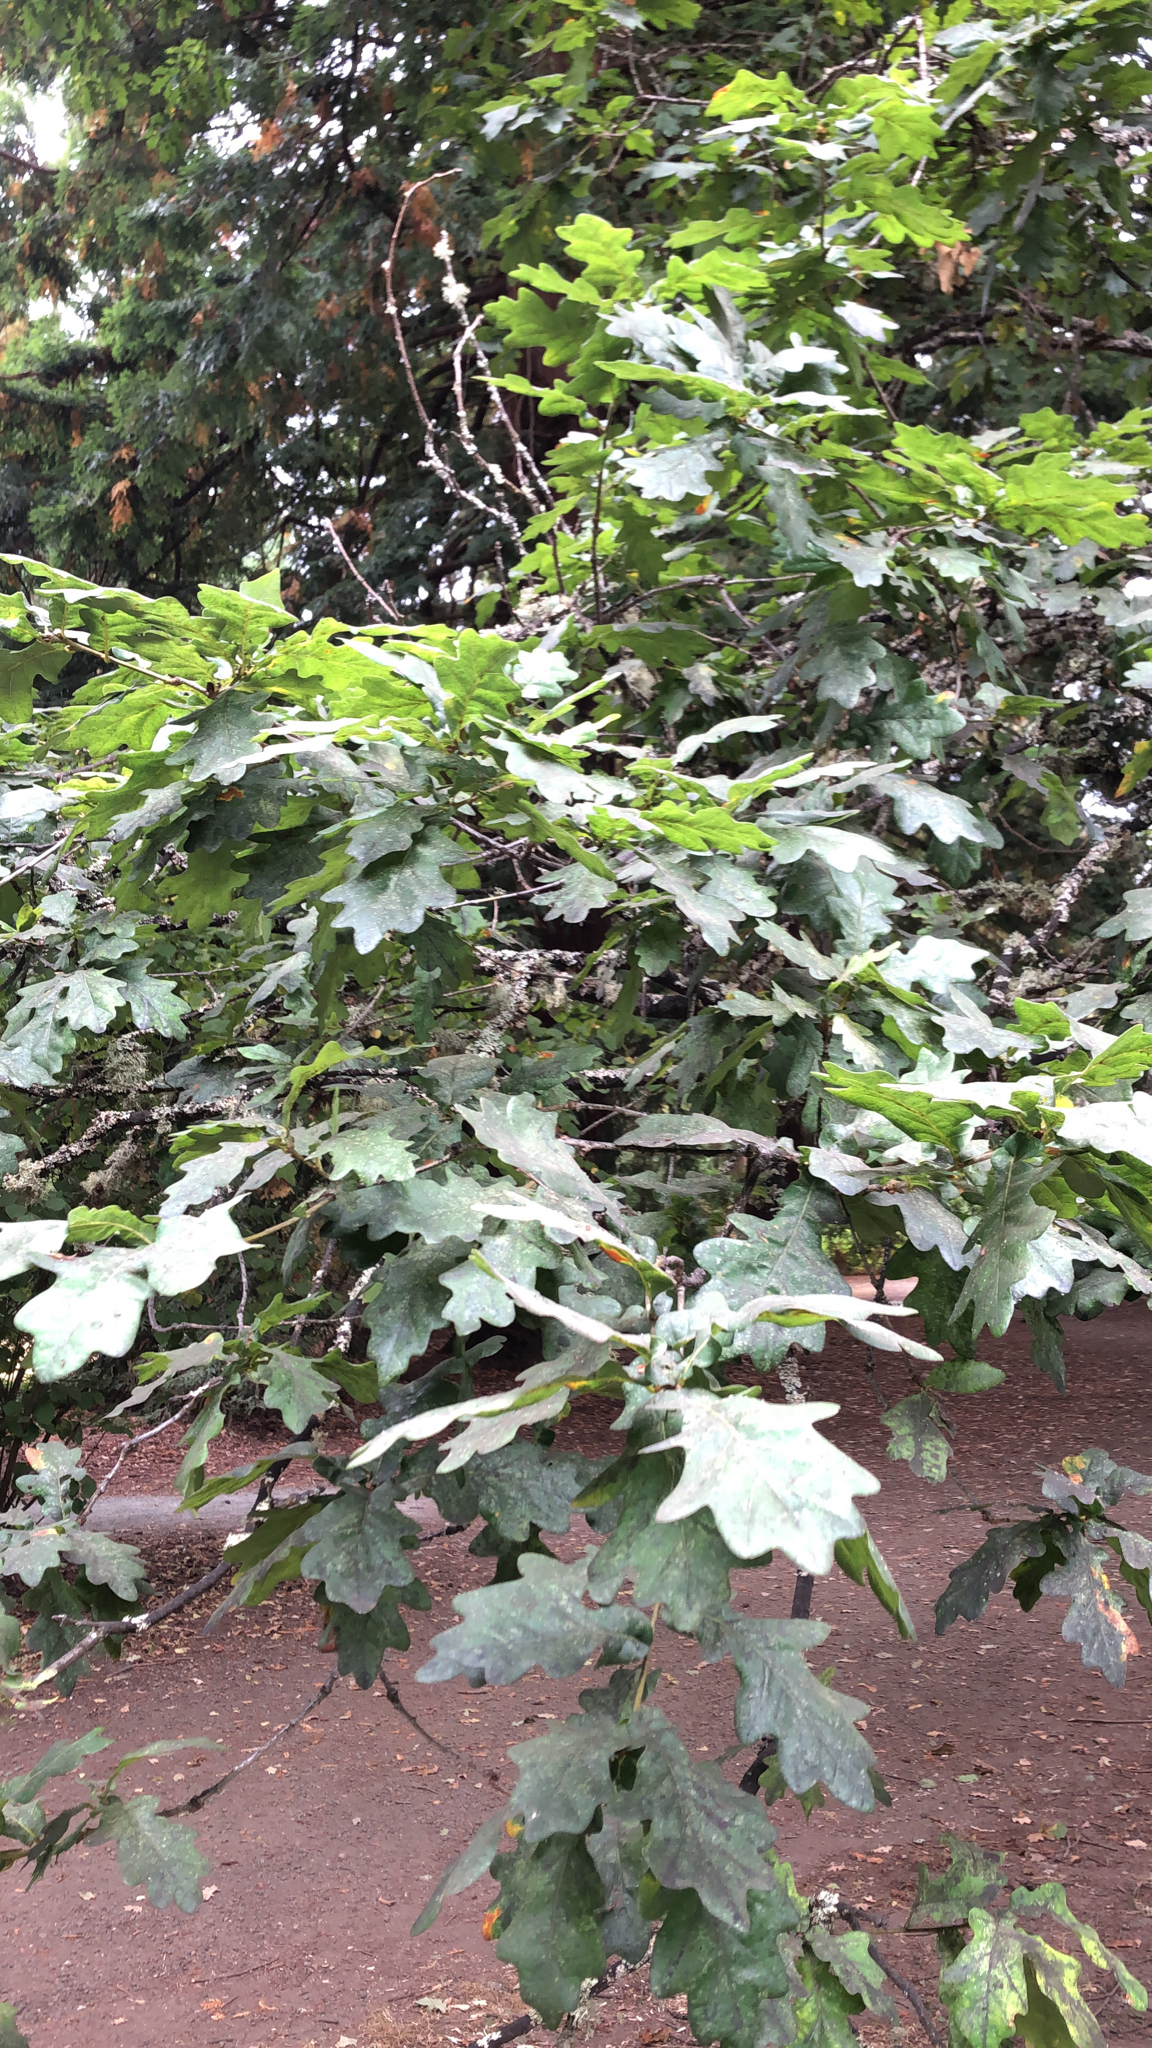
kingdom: Plantae
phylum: Tracheophyta
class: Magnoliopsida
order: Fagales
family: Fagaceae
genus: Quercus
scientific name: Quercus robur
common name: Pedunculate oak
